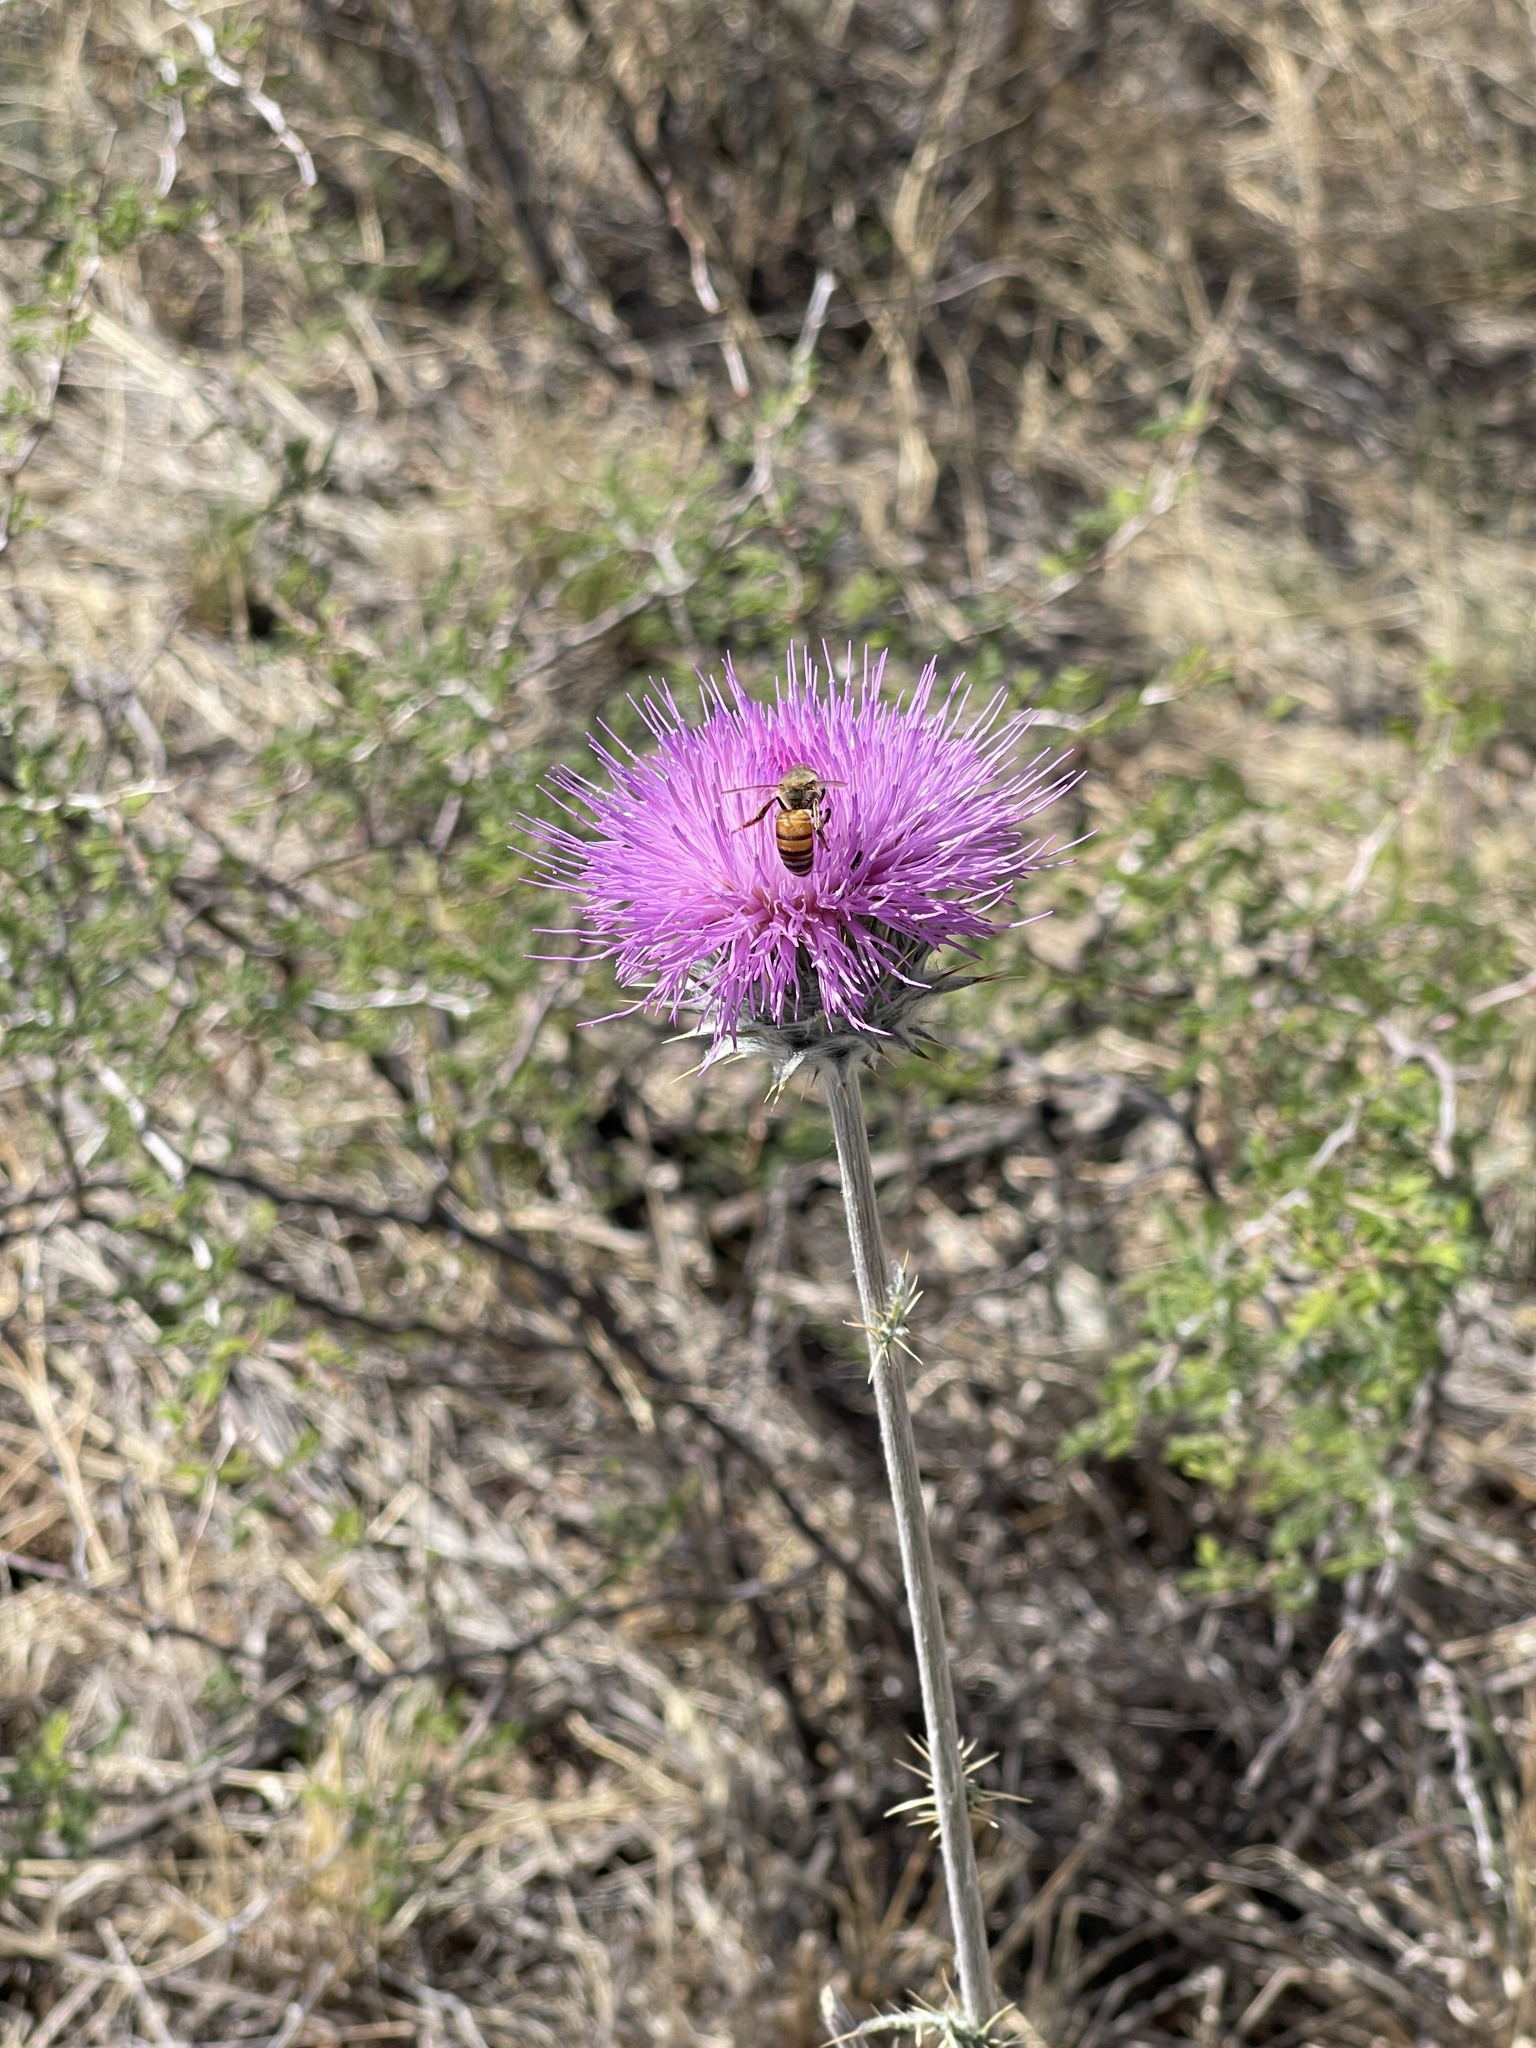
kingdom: Animalia
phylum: Arthropoda
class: Insecta
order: Hymenoptera
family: Apidae
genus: Apis
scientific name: Apis mellifera
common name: Honey bee
